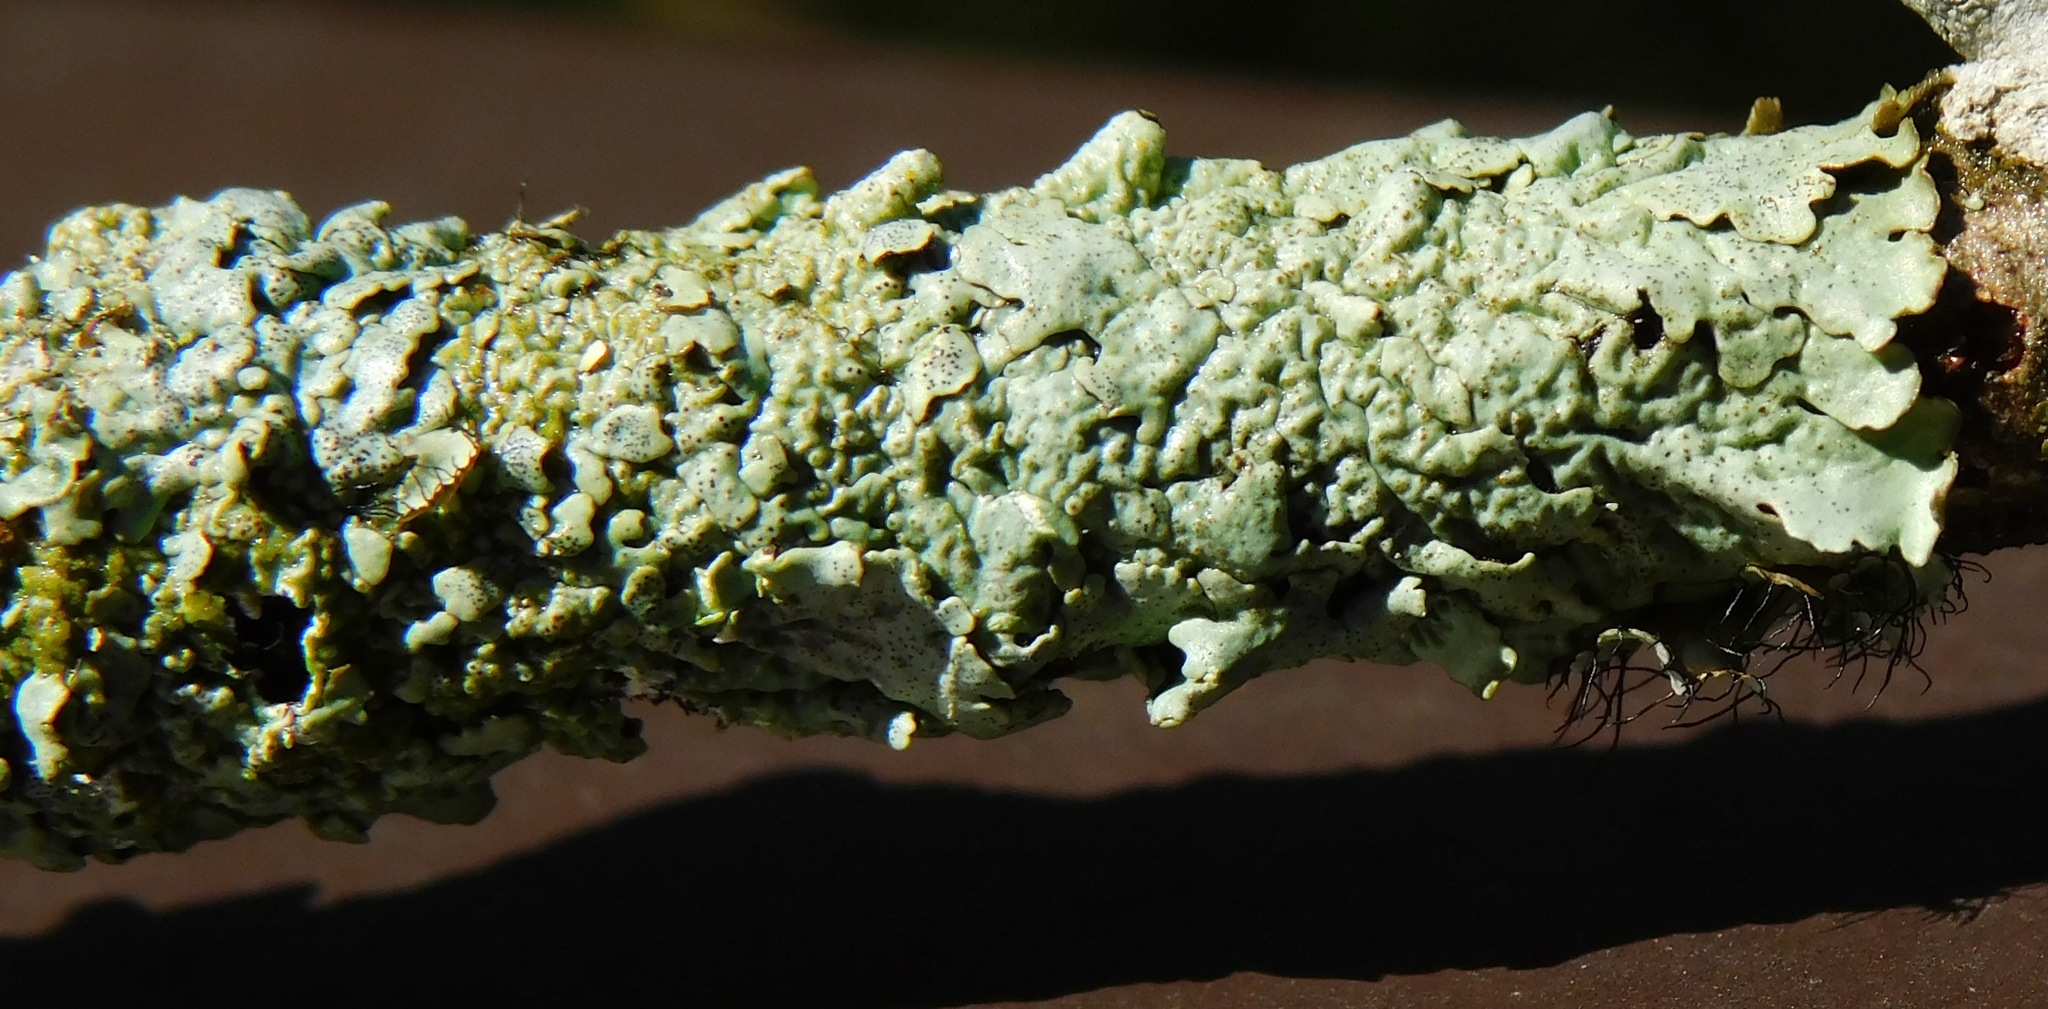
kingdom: Fungi
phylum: Ascomycota
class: Lecanoromycetes
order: Lecanorales
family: Parmeliaceae
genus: Myelochroa
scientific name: Myelochroa galbina
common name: Smooth axil-bristle lichen
